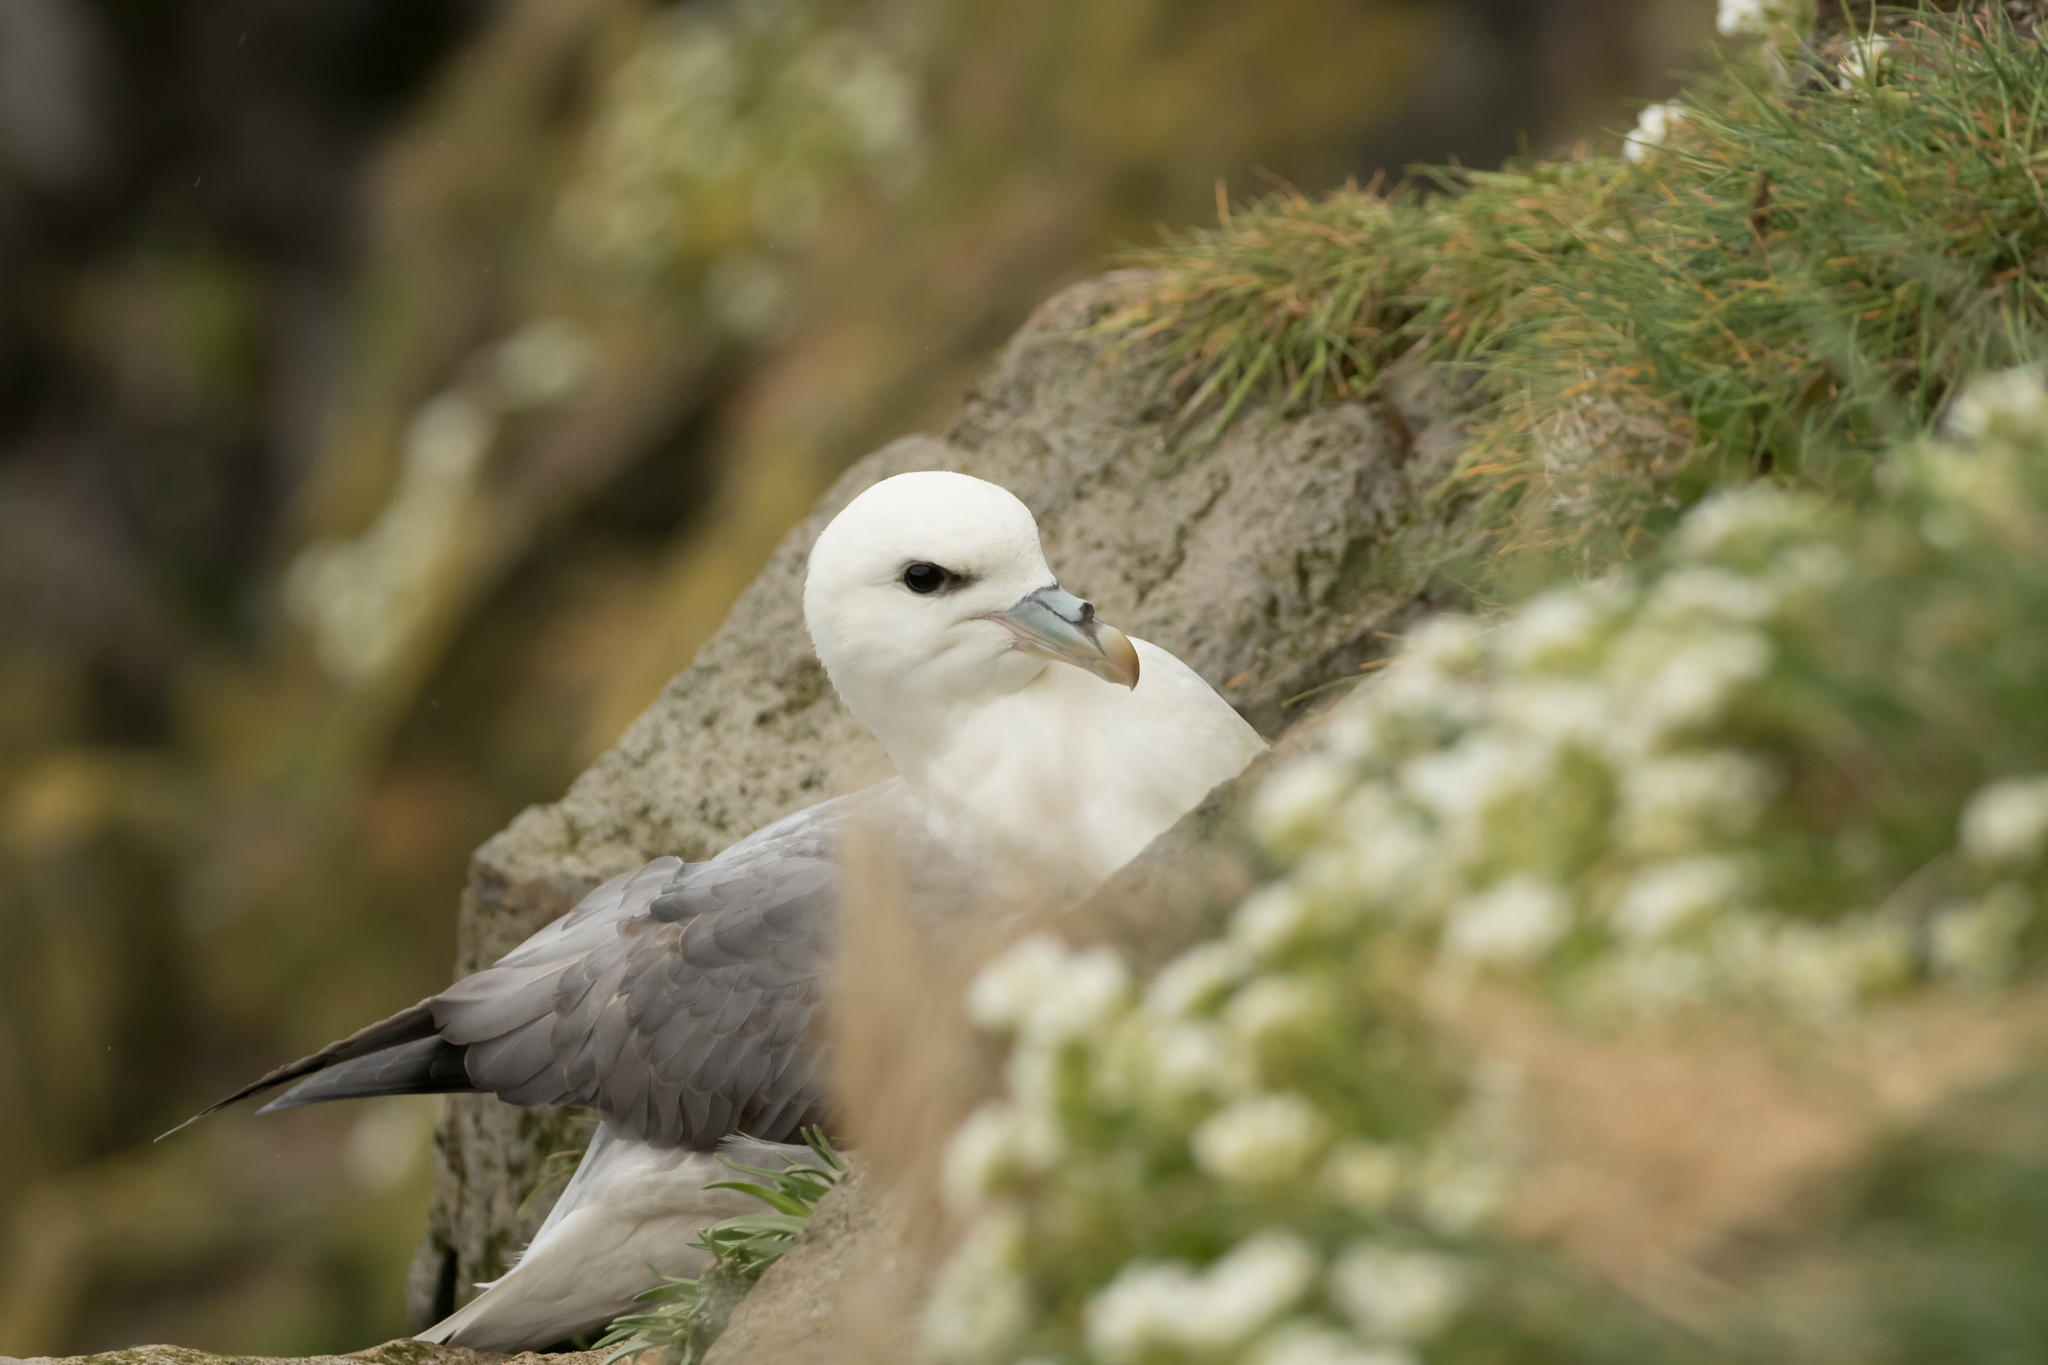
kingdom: Animalia
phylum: Chordata
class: Aves
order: Procellariiformes
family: Procellariidae
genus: Fulmarus
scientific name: Fulmarus glacialis
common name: Northern fulmar
